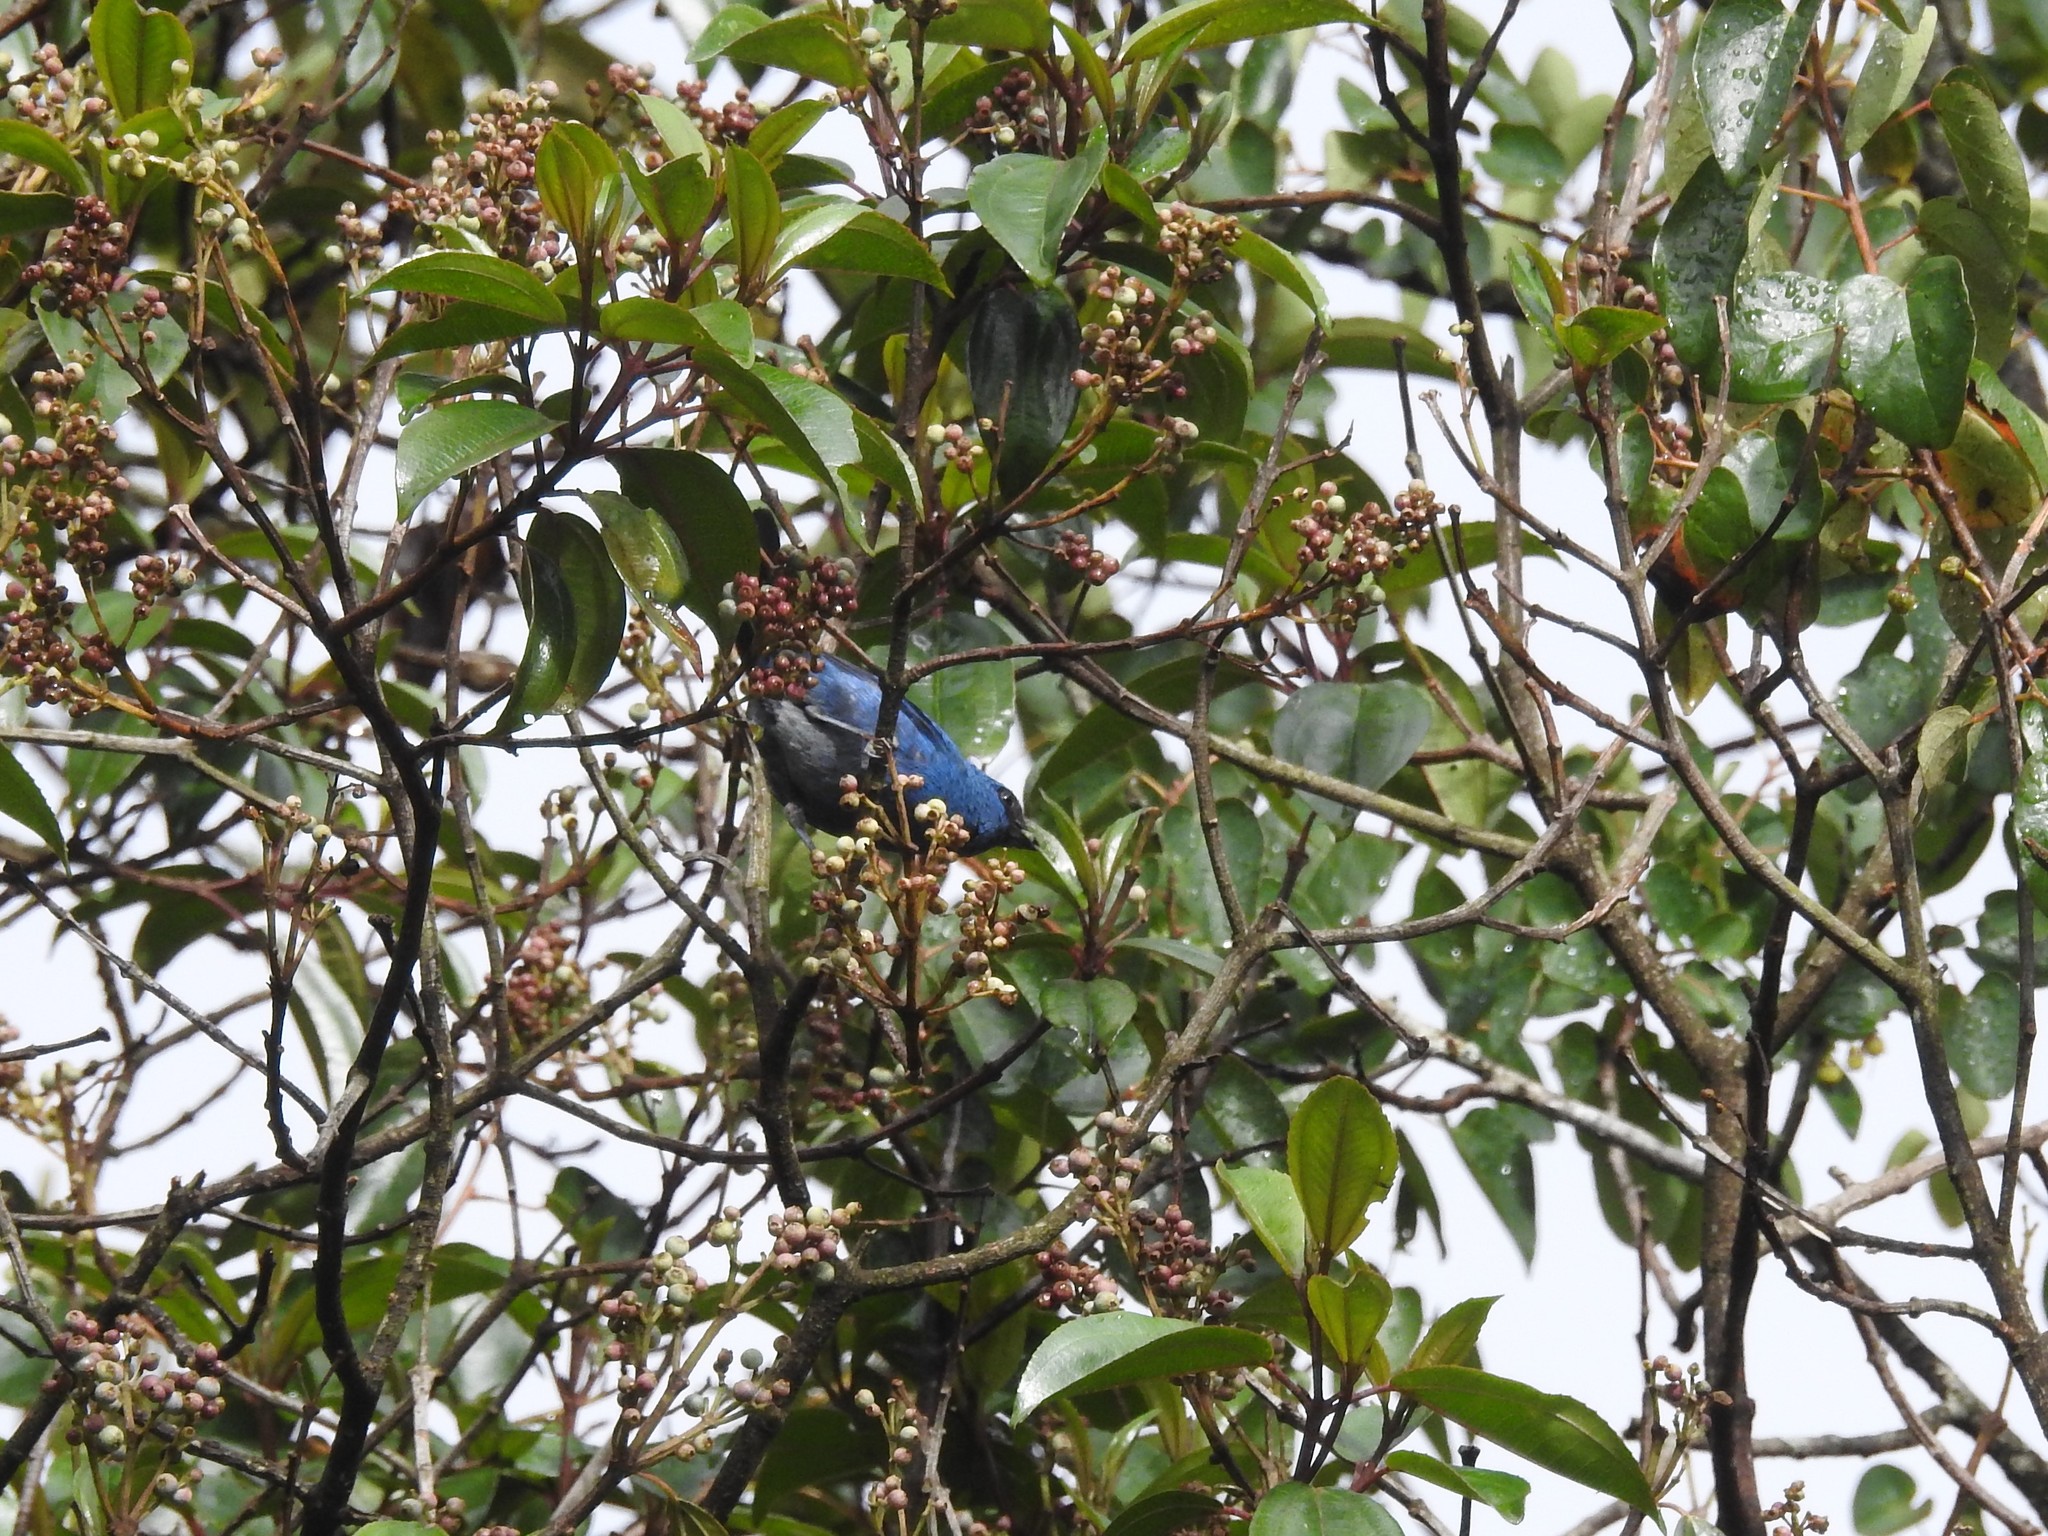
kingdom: Animalia
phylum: Chordata
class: Aves
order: Passeriformes
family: Thraupidae
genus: Tangara
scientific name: Tangara vassorii
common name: Blue-and-black tanager
